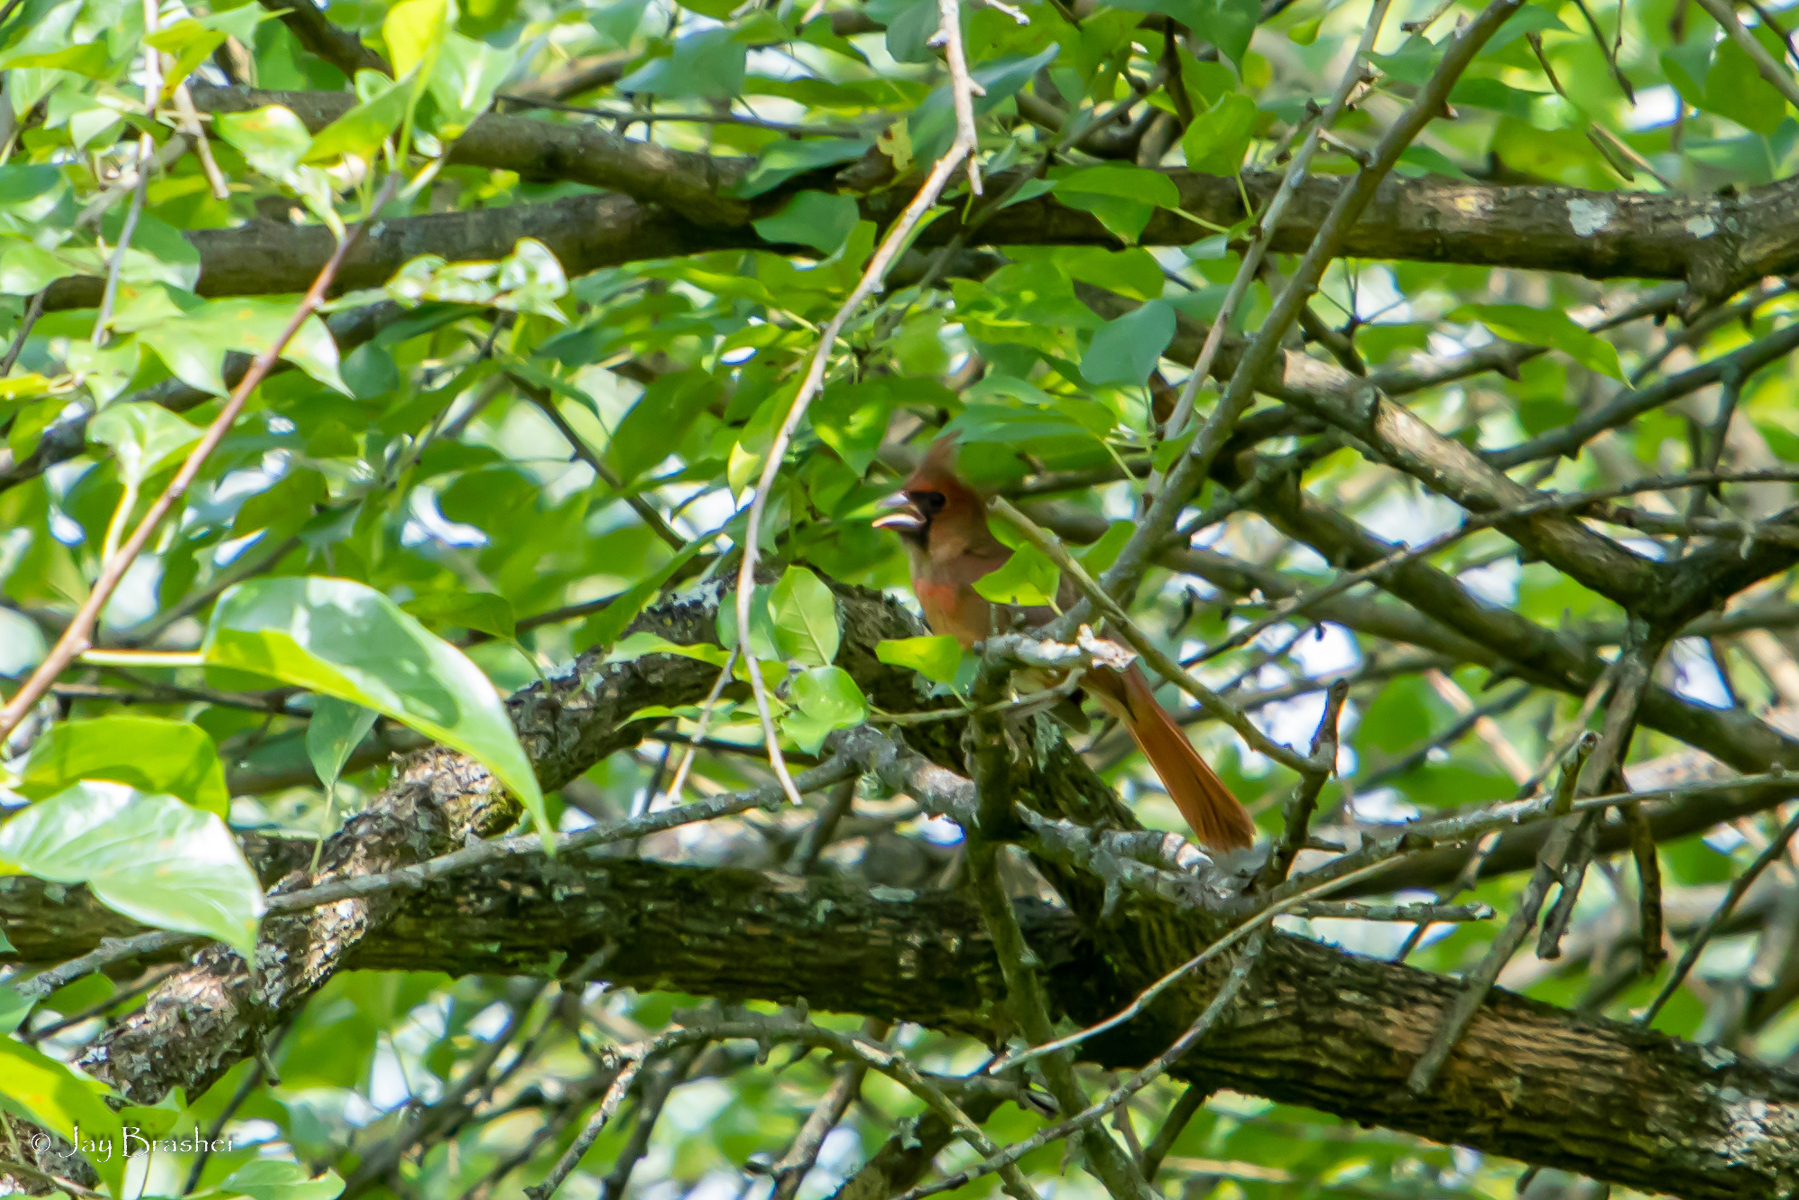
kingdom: Animalia
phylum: Chordata
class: Aves
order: Passeriformes
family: Cardinalidae
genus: Cardinalis
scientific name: Cardinalis cardinalis
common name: Northern cardinal
